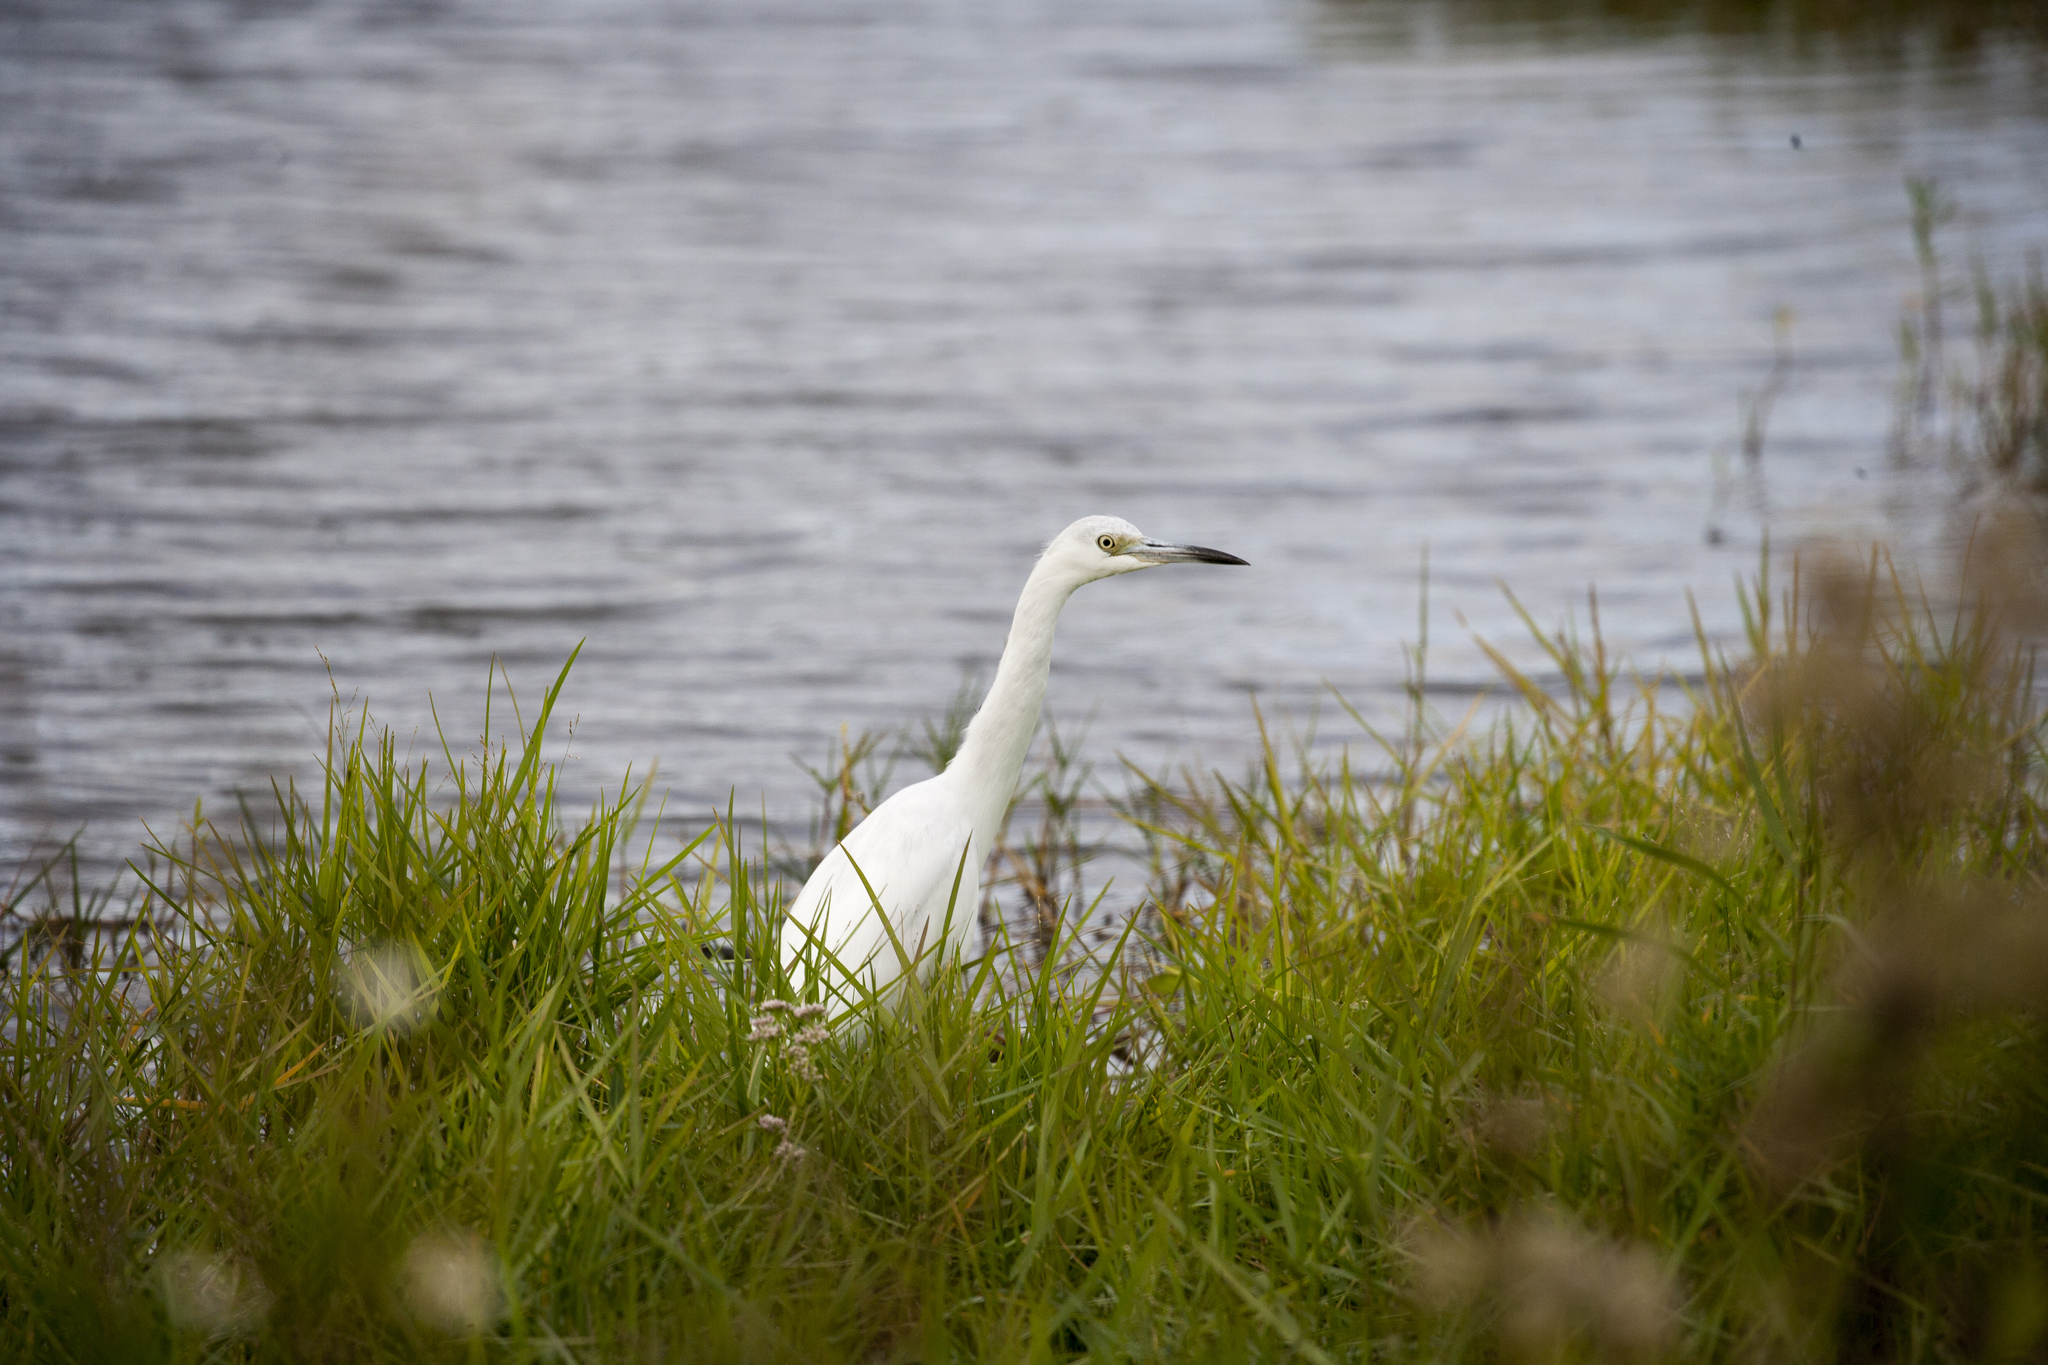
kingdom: Animalia
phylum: Chordata
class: Aves
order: Pelecaniformes
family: Ardeidae
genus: Egretta
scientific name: Egretta caerulea
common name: Little blue heron
